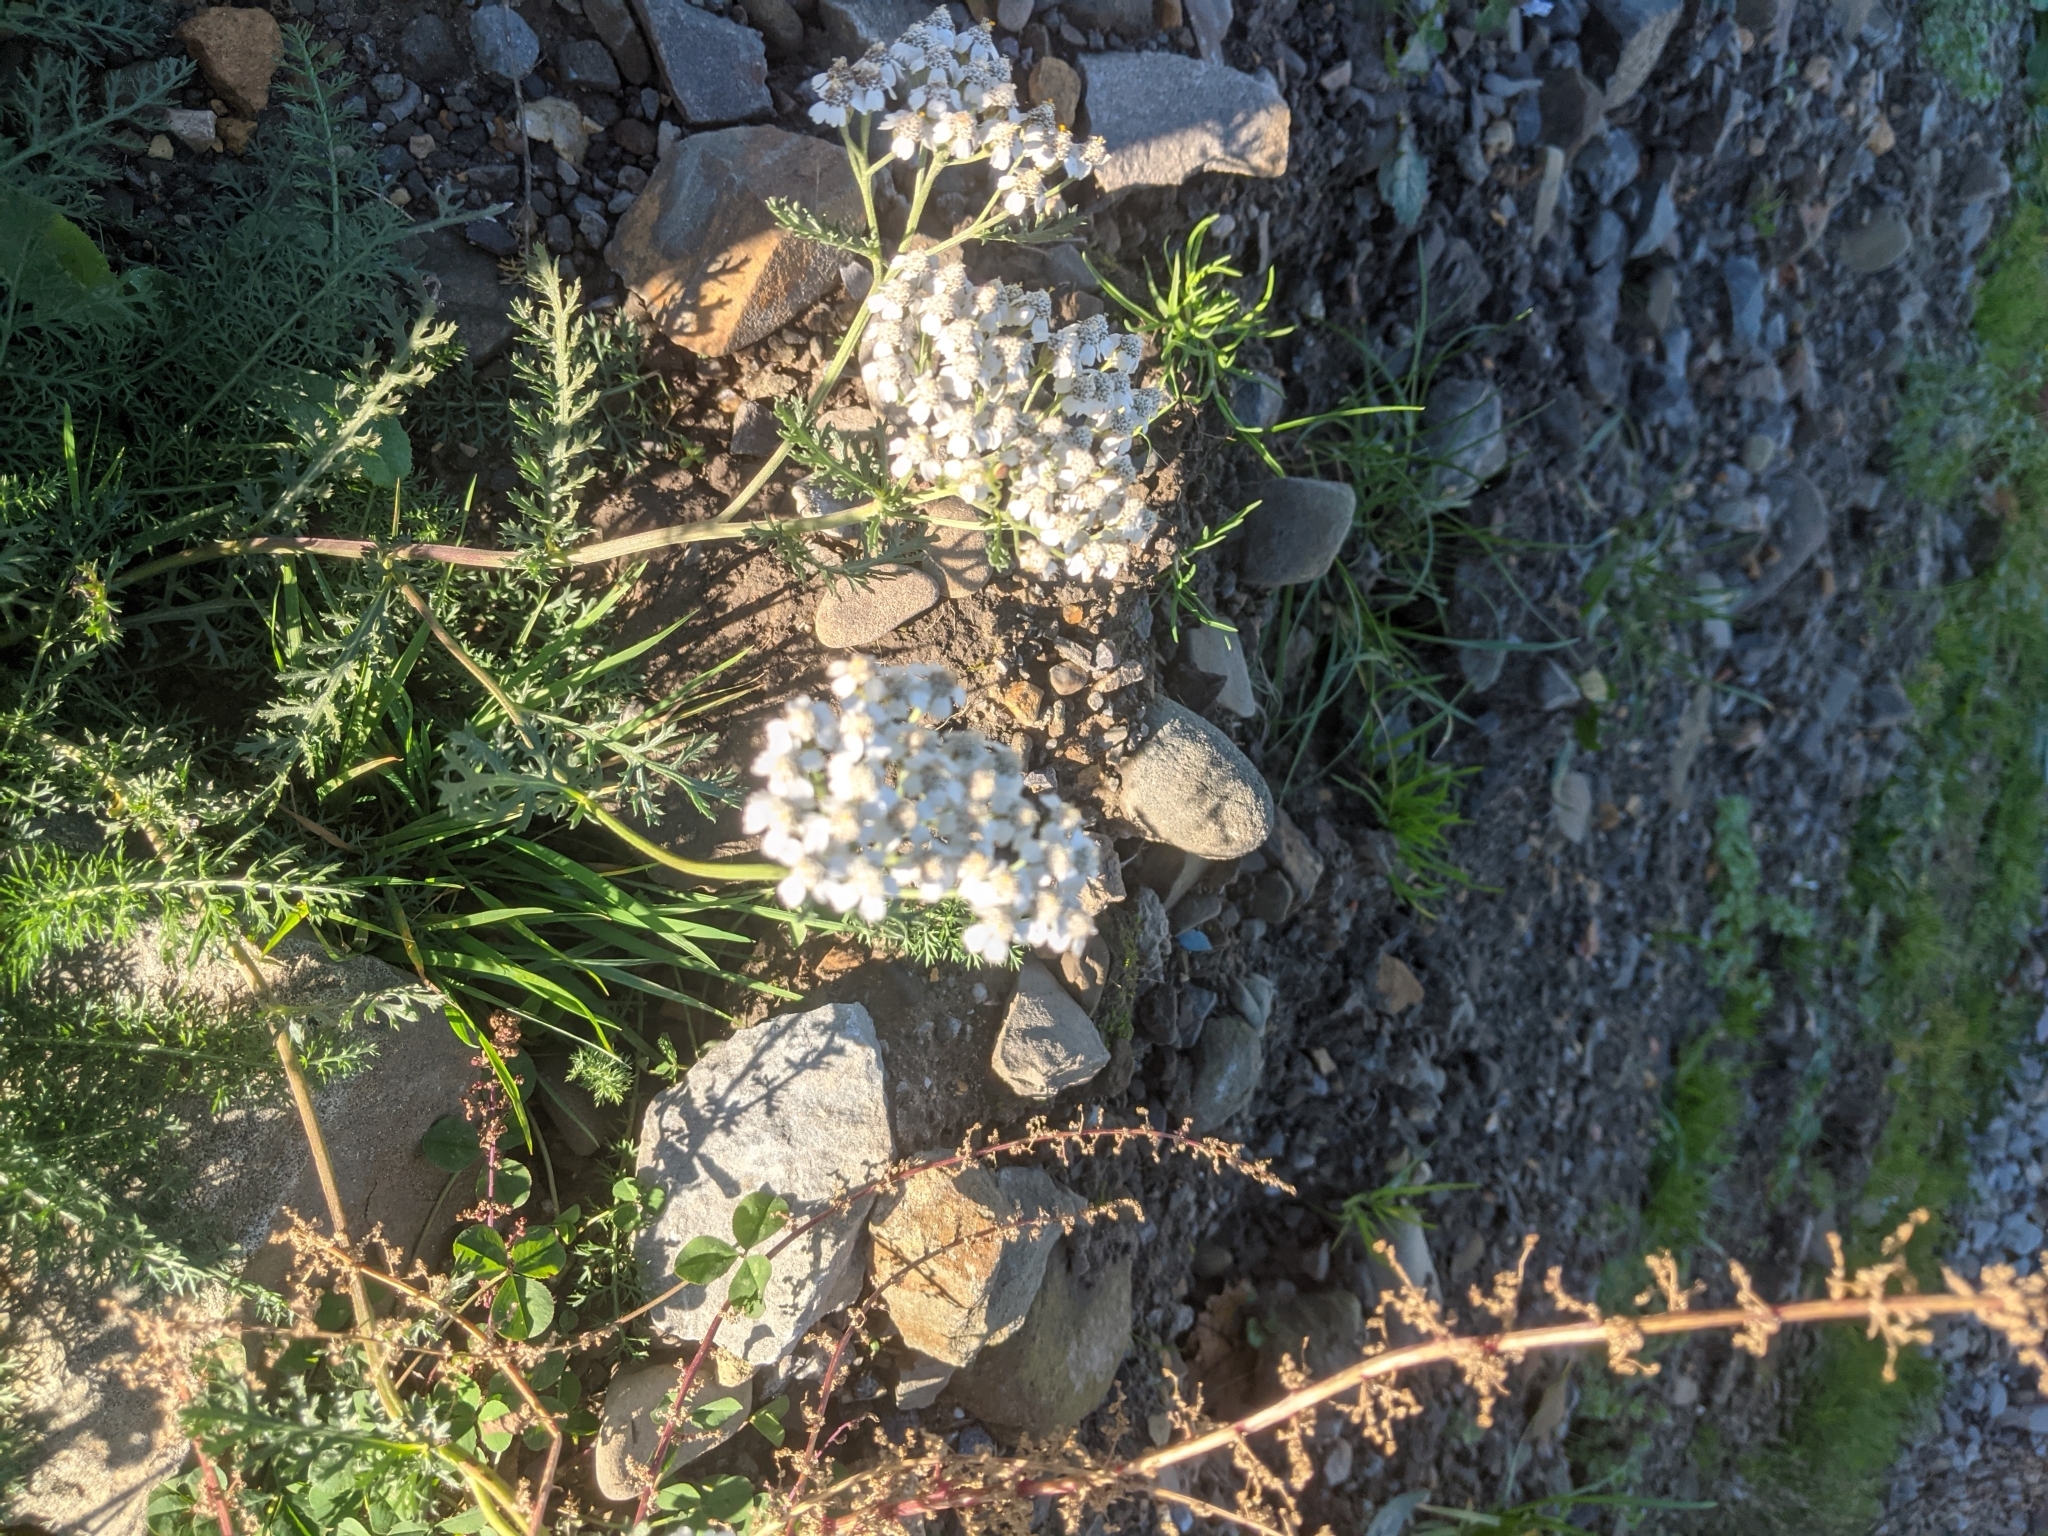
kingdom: Plantae
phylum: Tracheophyta
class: Magnoliopsida
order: Asterales
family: Asteraceae
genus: Achillea
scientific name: Achillea millefolium
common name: Yarrow
